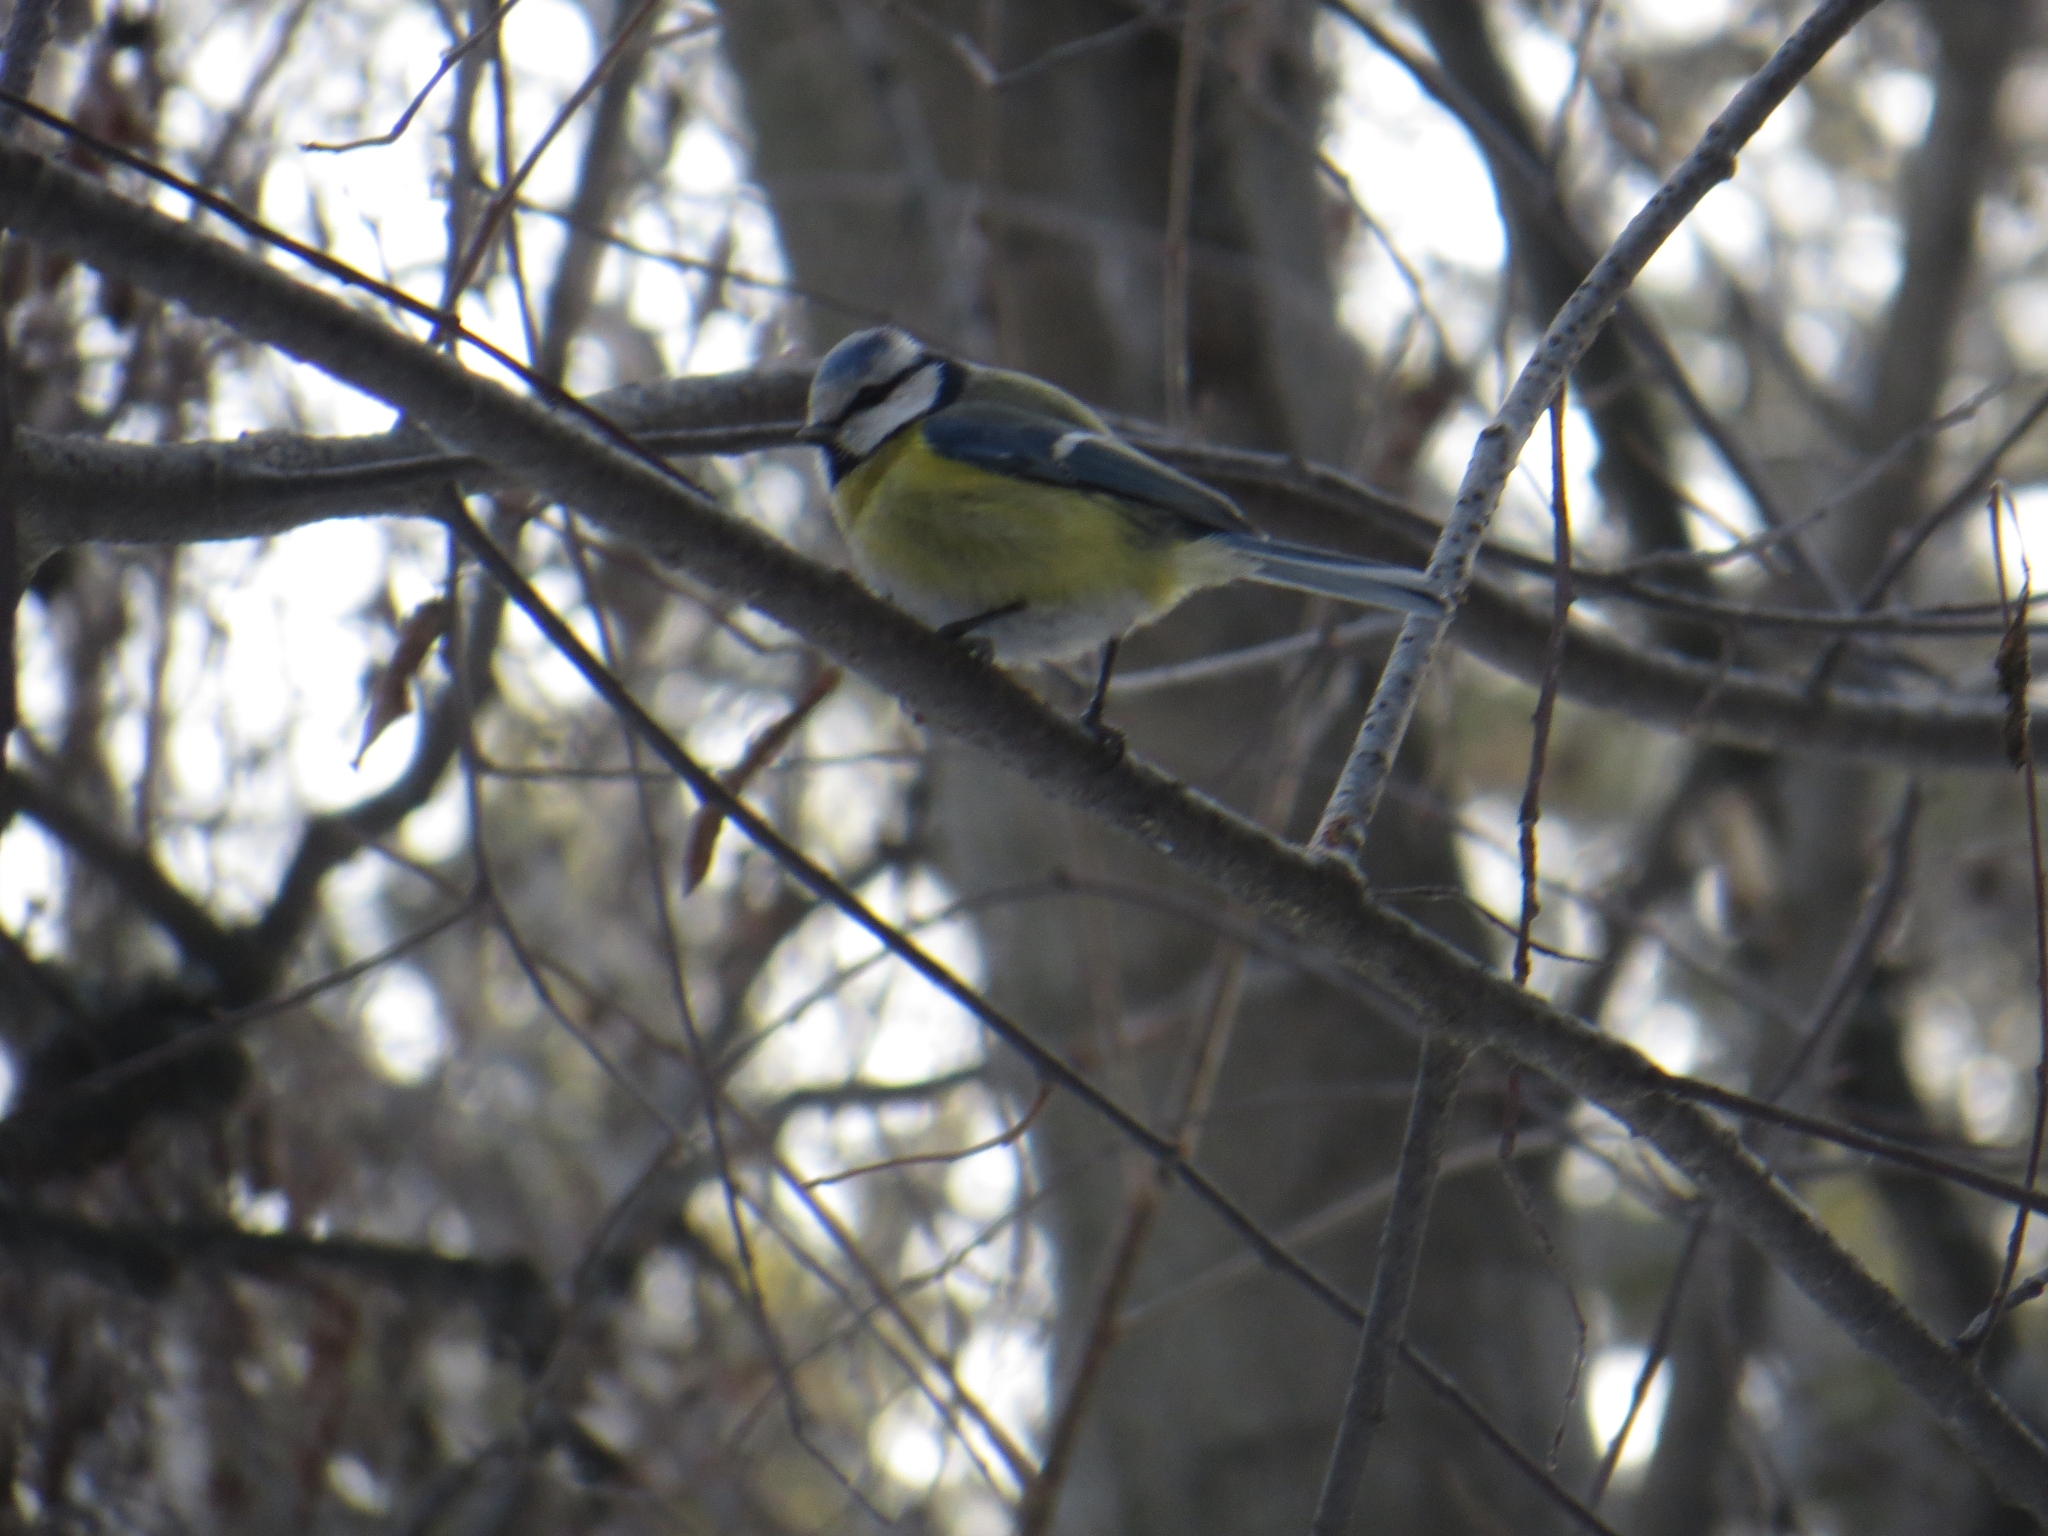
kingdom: Animalia
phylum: Chordata
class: Aves
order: Passeriformes
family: Paridae
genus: Cyanistes
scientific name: Cyanistes caeruleus
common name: Eurasian blue tit
